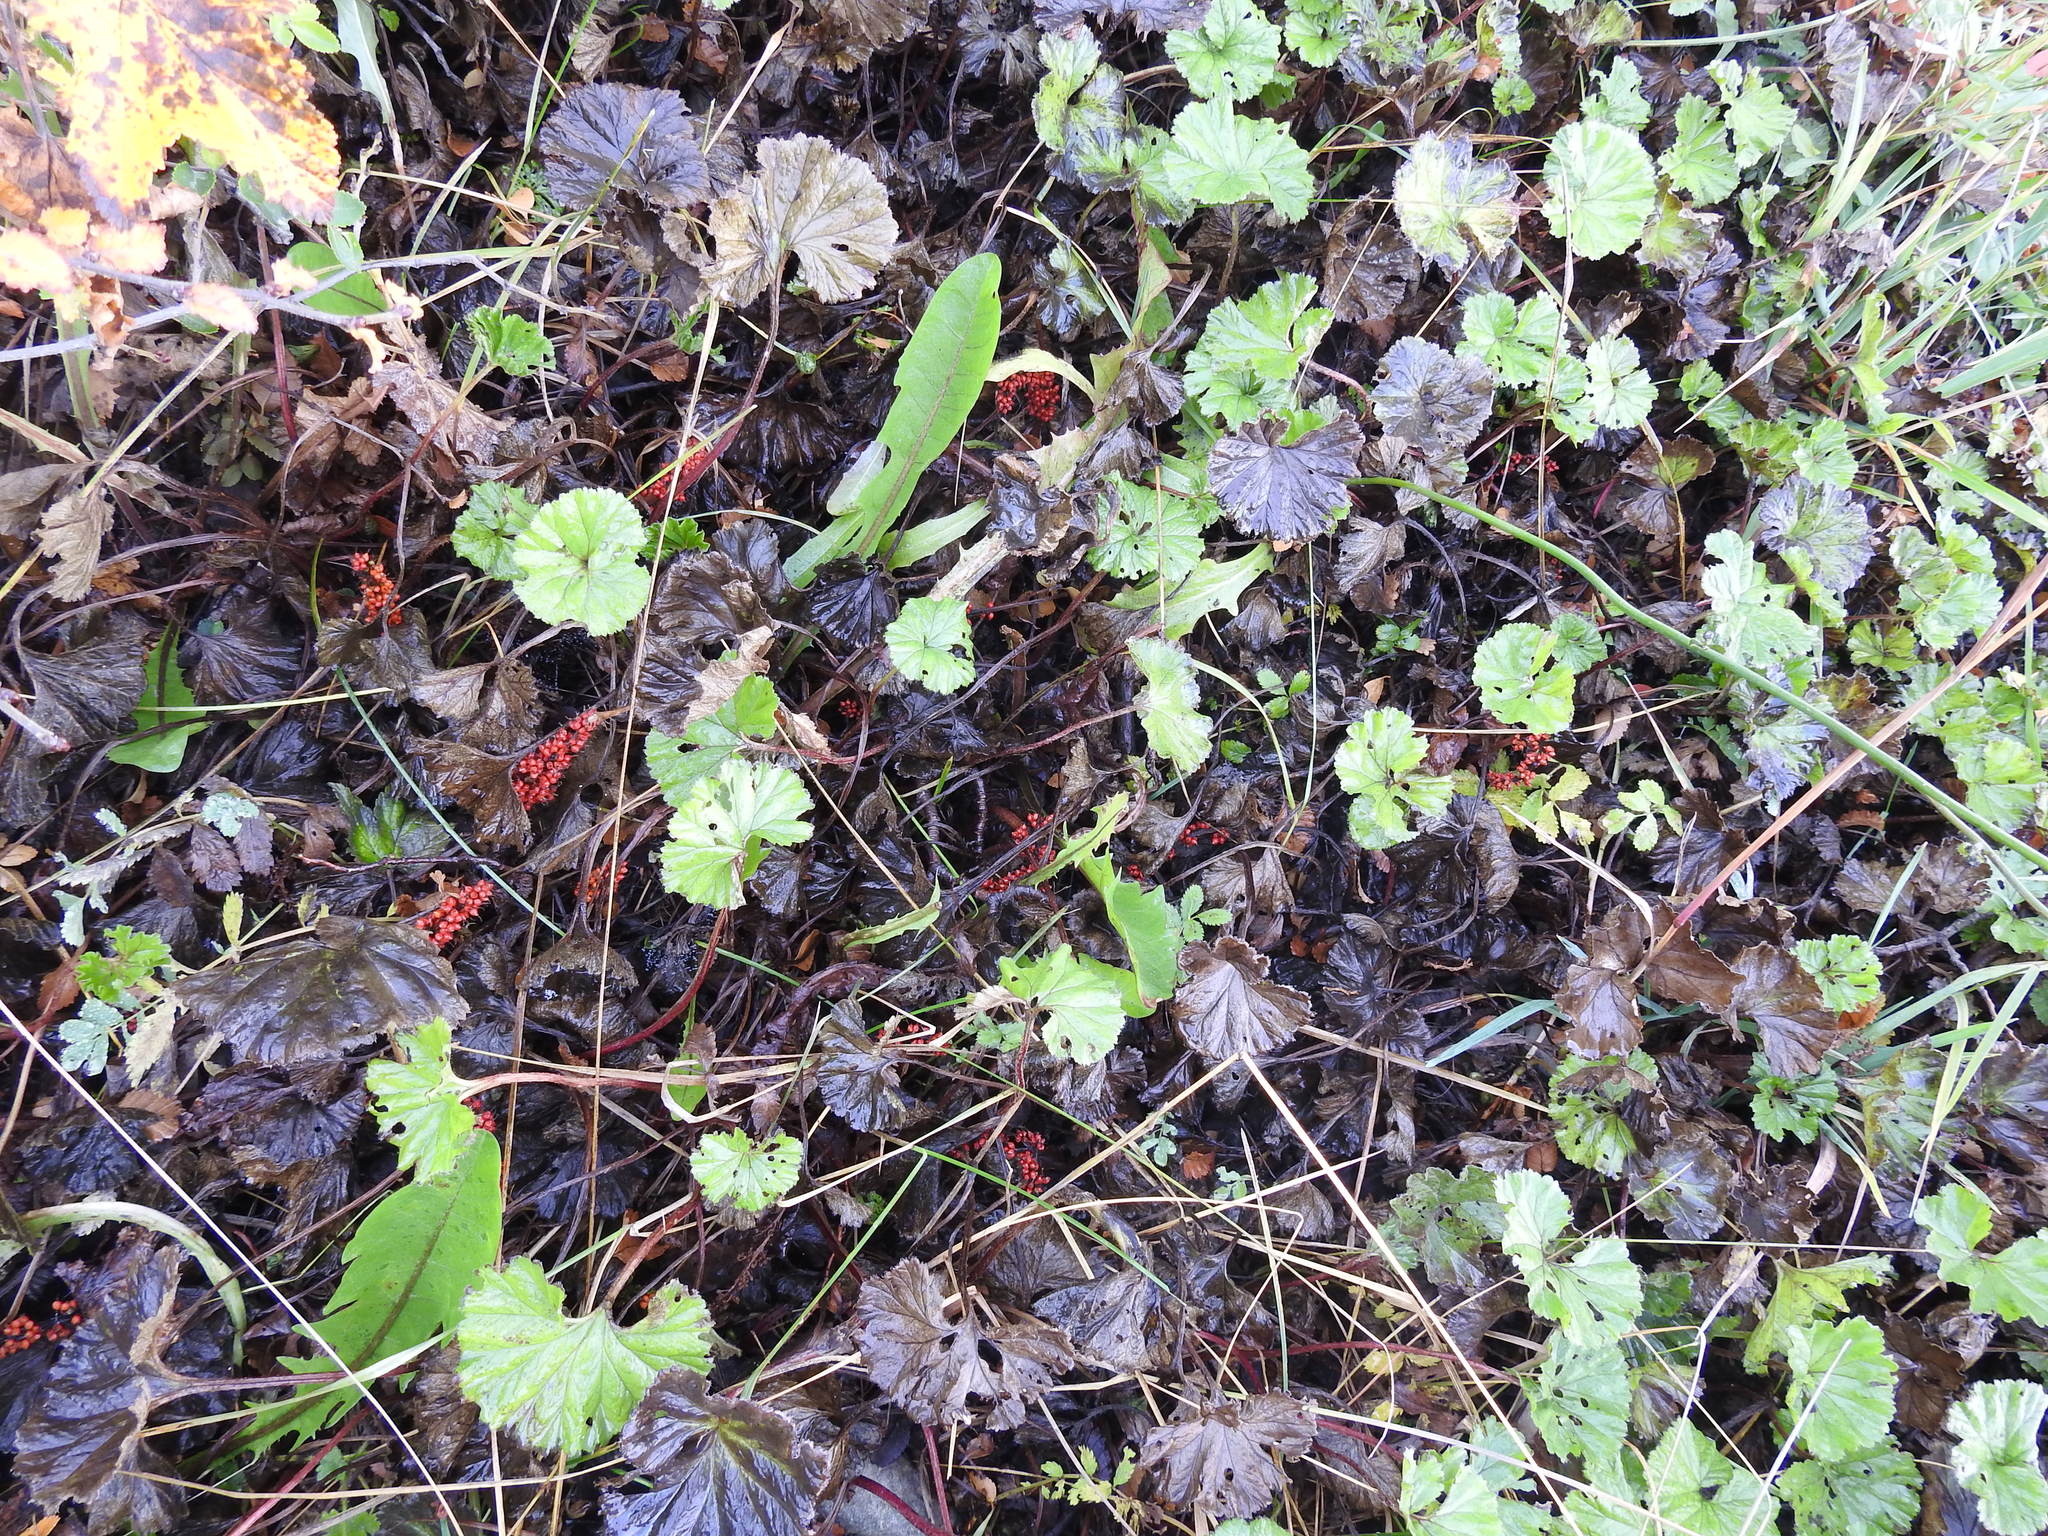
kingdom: Plantae
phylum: Tracheophyta
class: Magnoliopsida
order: Gunnerales
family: Gunneraceae
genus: Gunnera
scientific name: Gunnera magellanica
